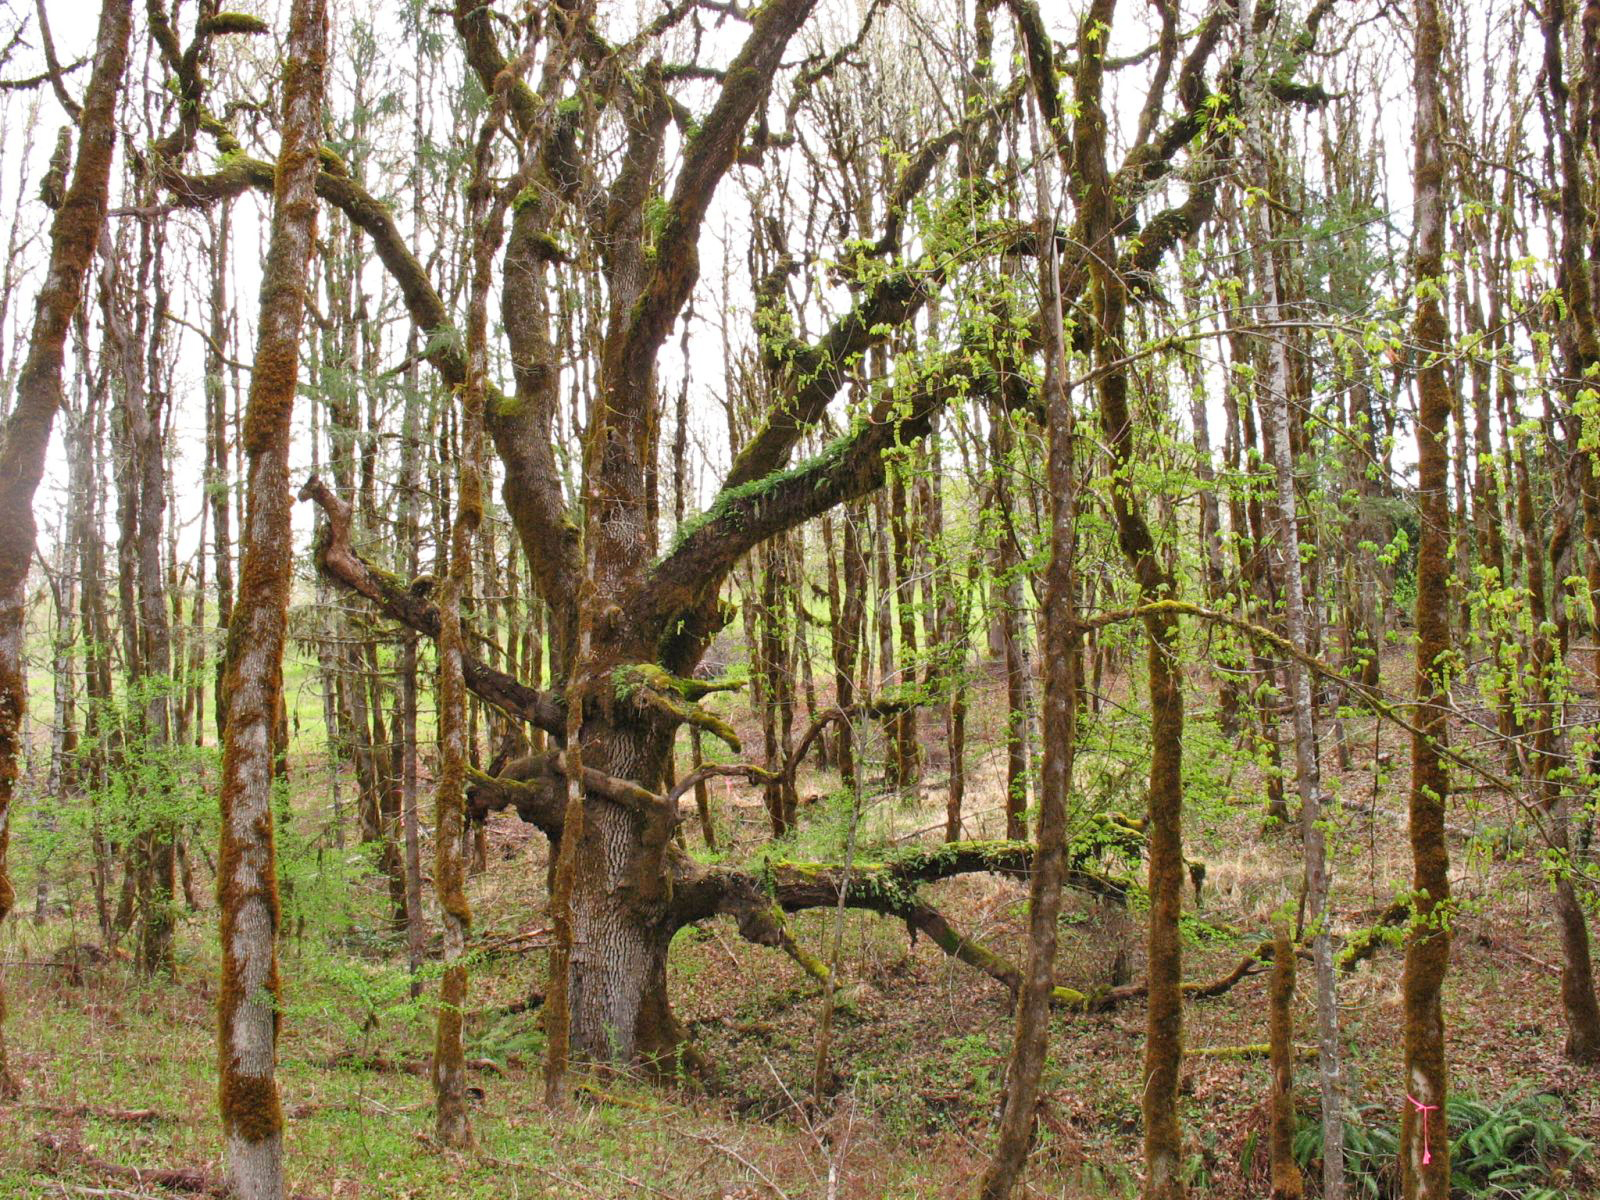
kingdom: Plantae
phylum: Tracheophyta
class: Magnoliopsida
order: Fagales
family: Fagaceae
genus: Quercus
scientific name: Quercus garryana
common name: Garry oak
